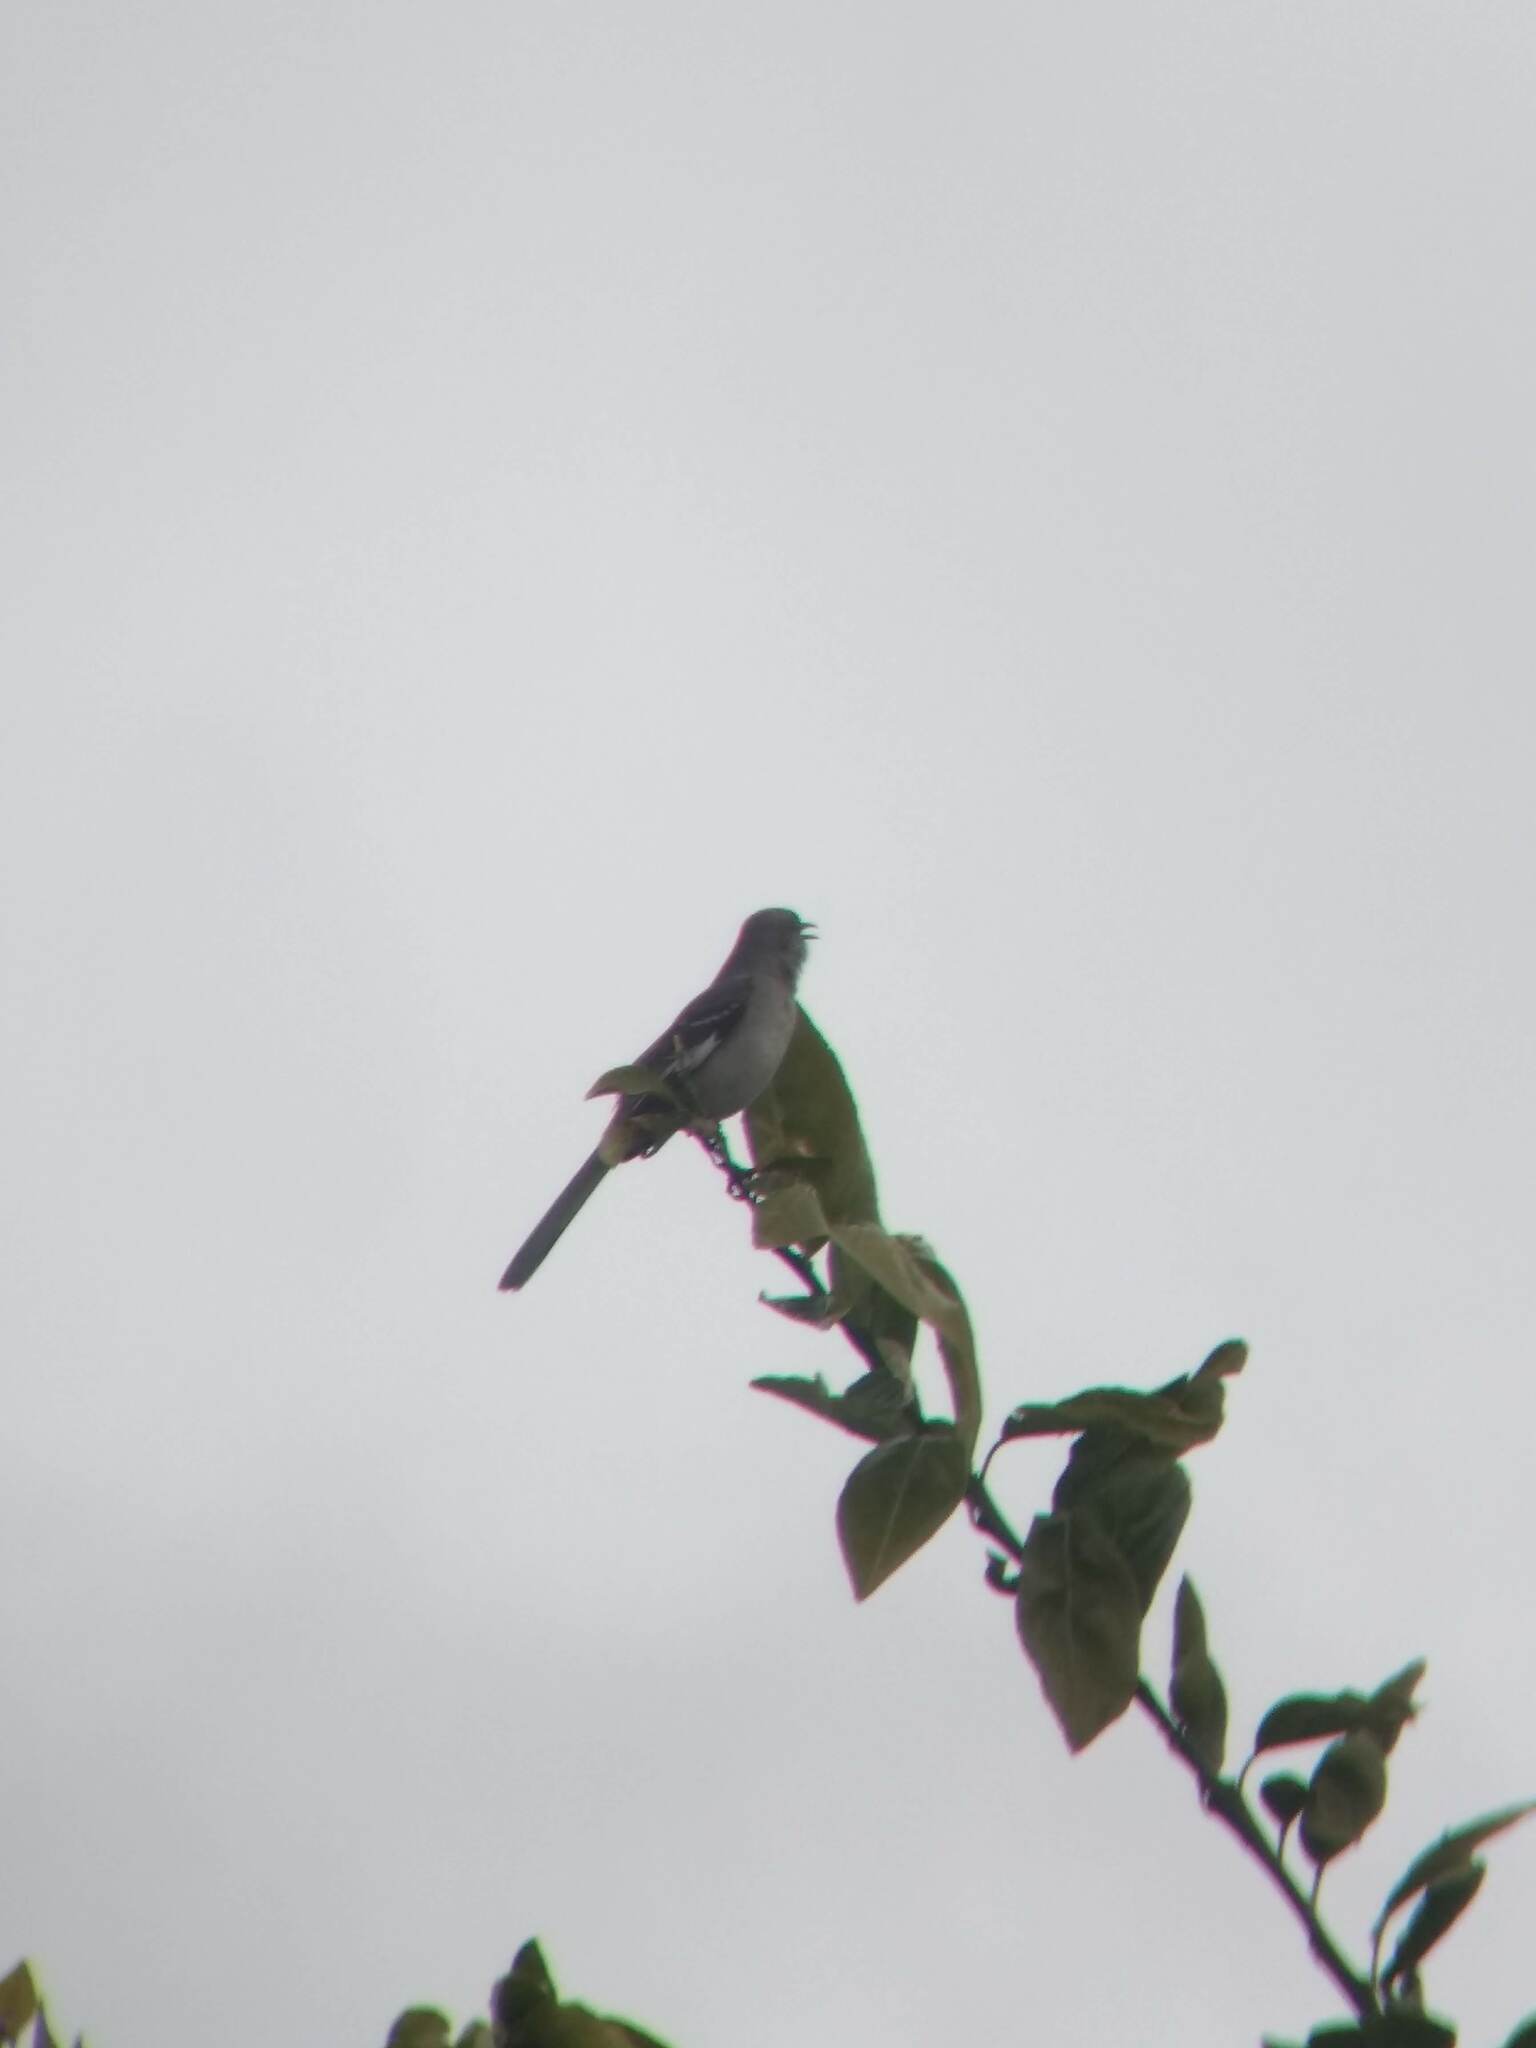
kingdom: Animalia
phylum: Chordata
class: Aves
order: Passeriformes
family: Mimidae
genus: Mimus
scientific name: Mimus polyglottos
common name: Northern mockingbird
